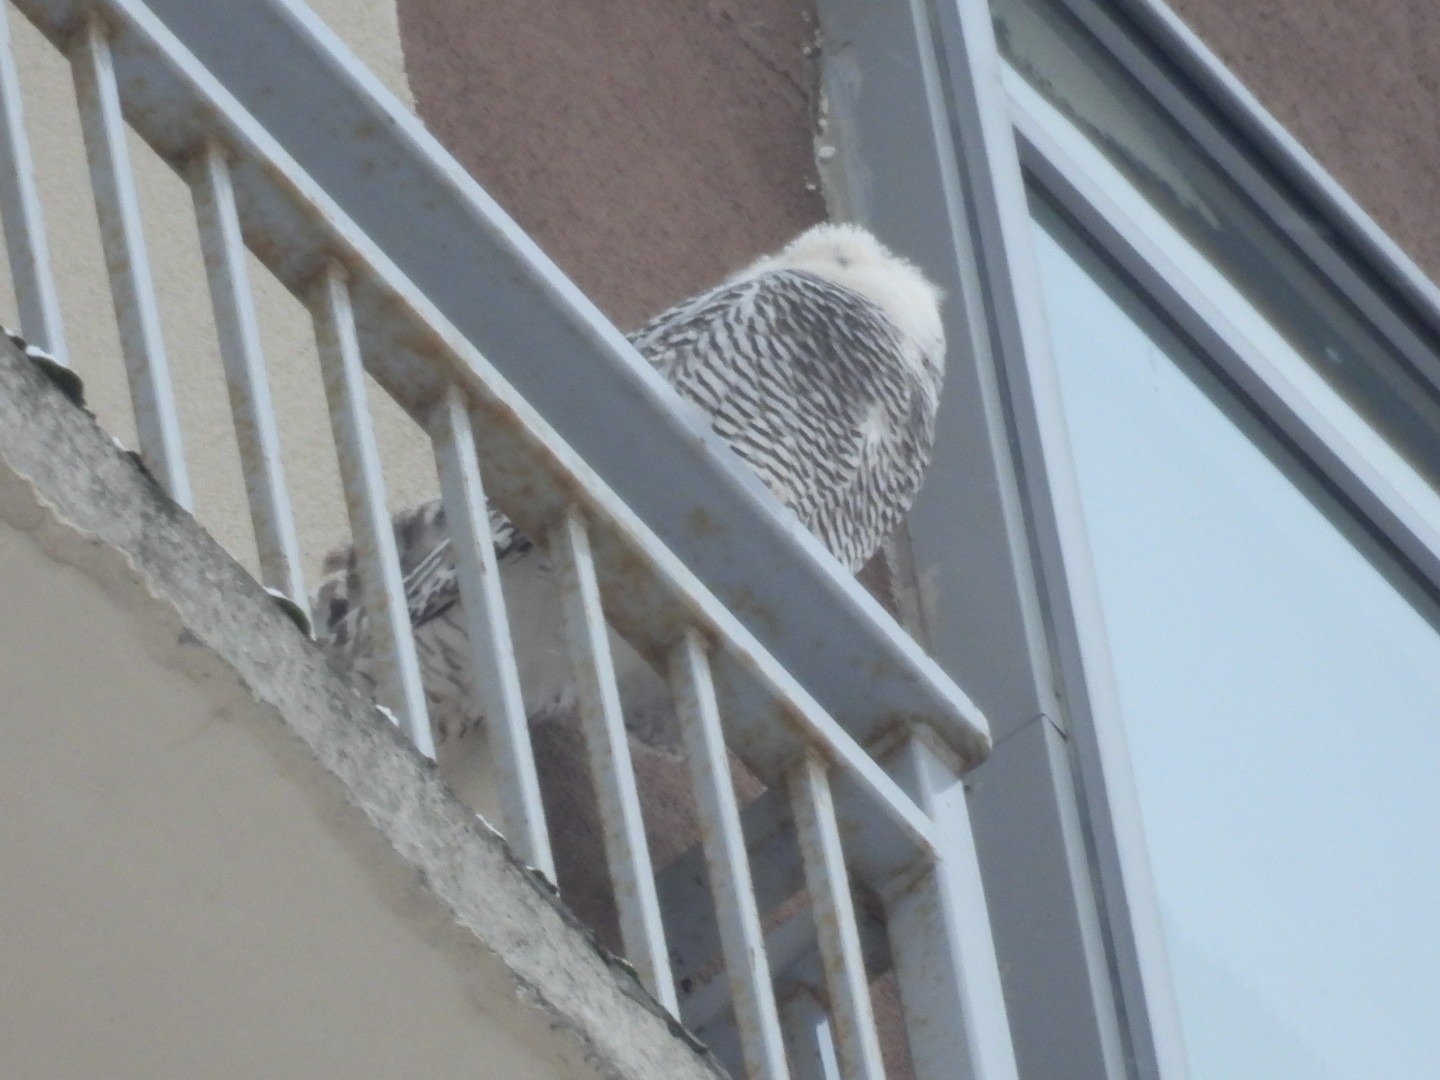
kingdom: Animalia
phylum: Chordata
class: Aves
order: Strigiformes
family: Strigidae
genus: Bubo
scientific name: Bubo scandiacus
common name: Snowy owl
